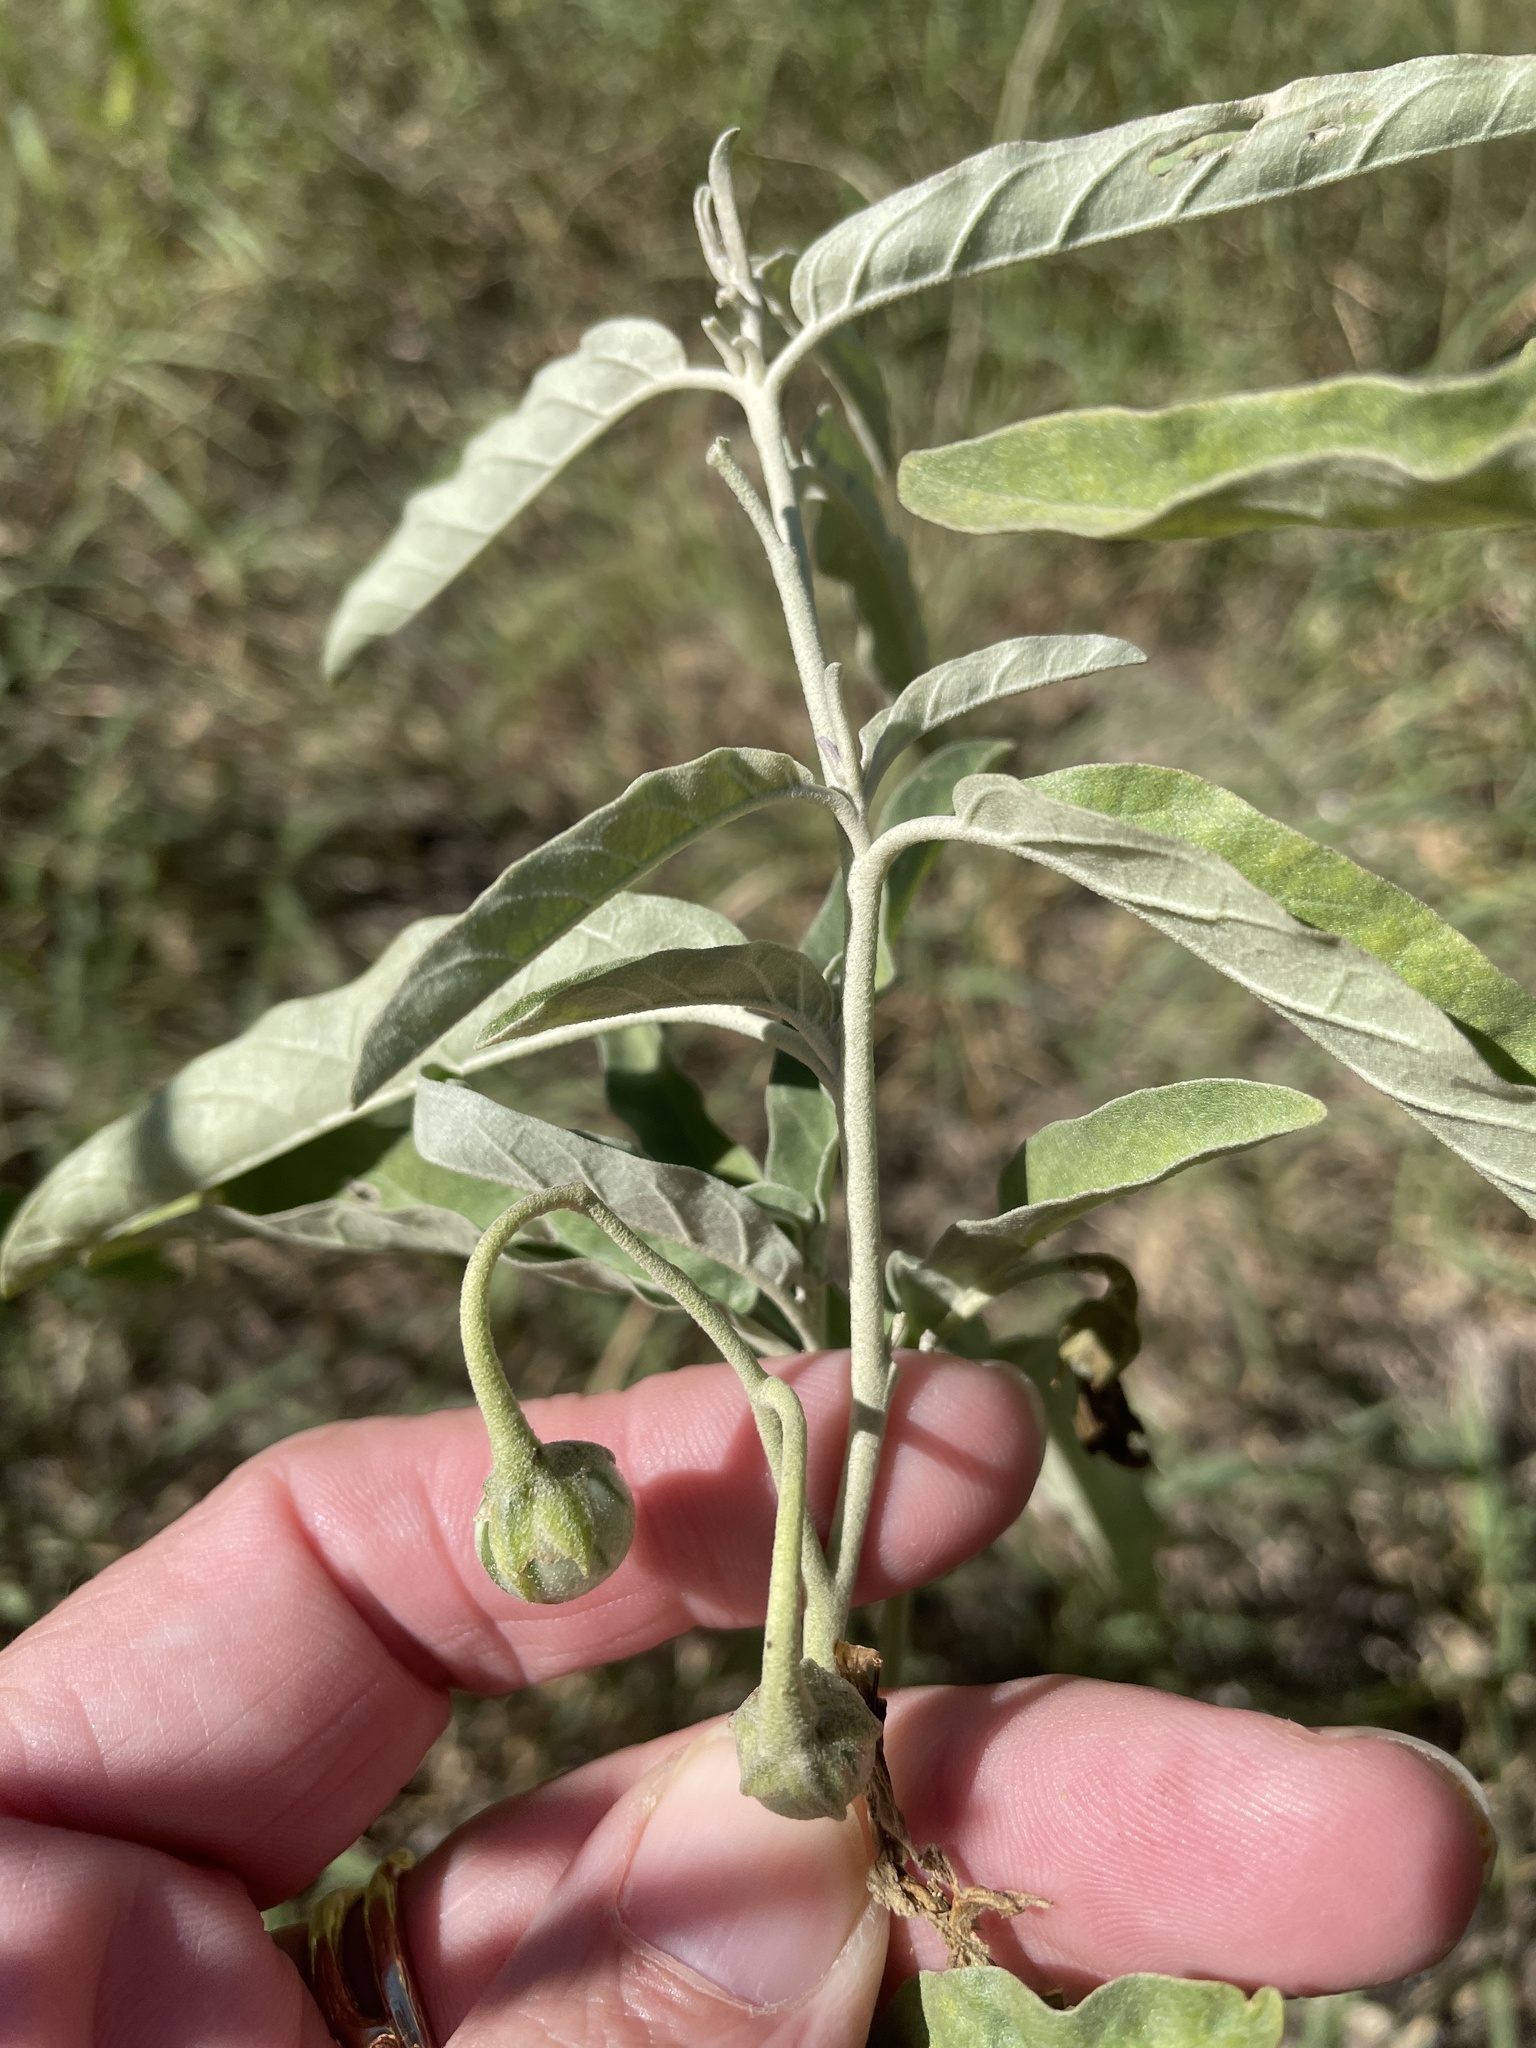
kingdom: Plantae
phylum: Tracheophyta
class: Magnoliopsida
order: Solanales
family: Solanaceae
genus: Solanum
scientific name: Solanum elaeagnifolium
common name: Silverleaf nightshade
